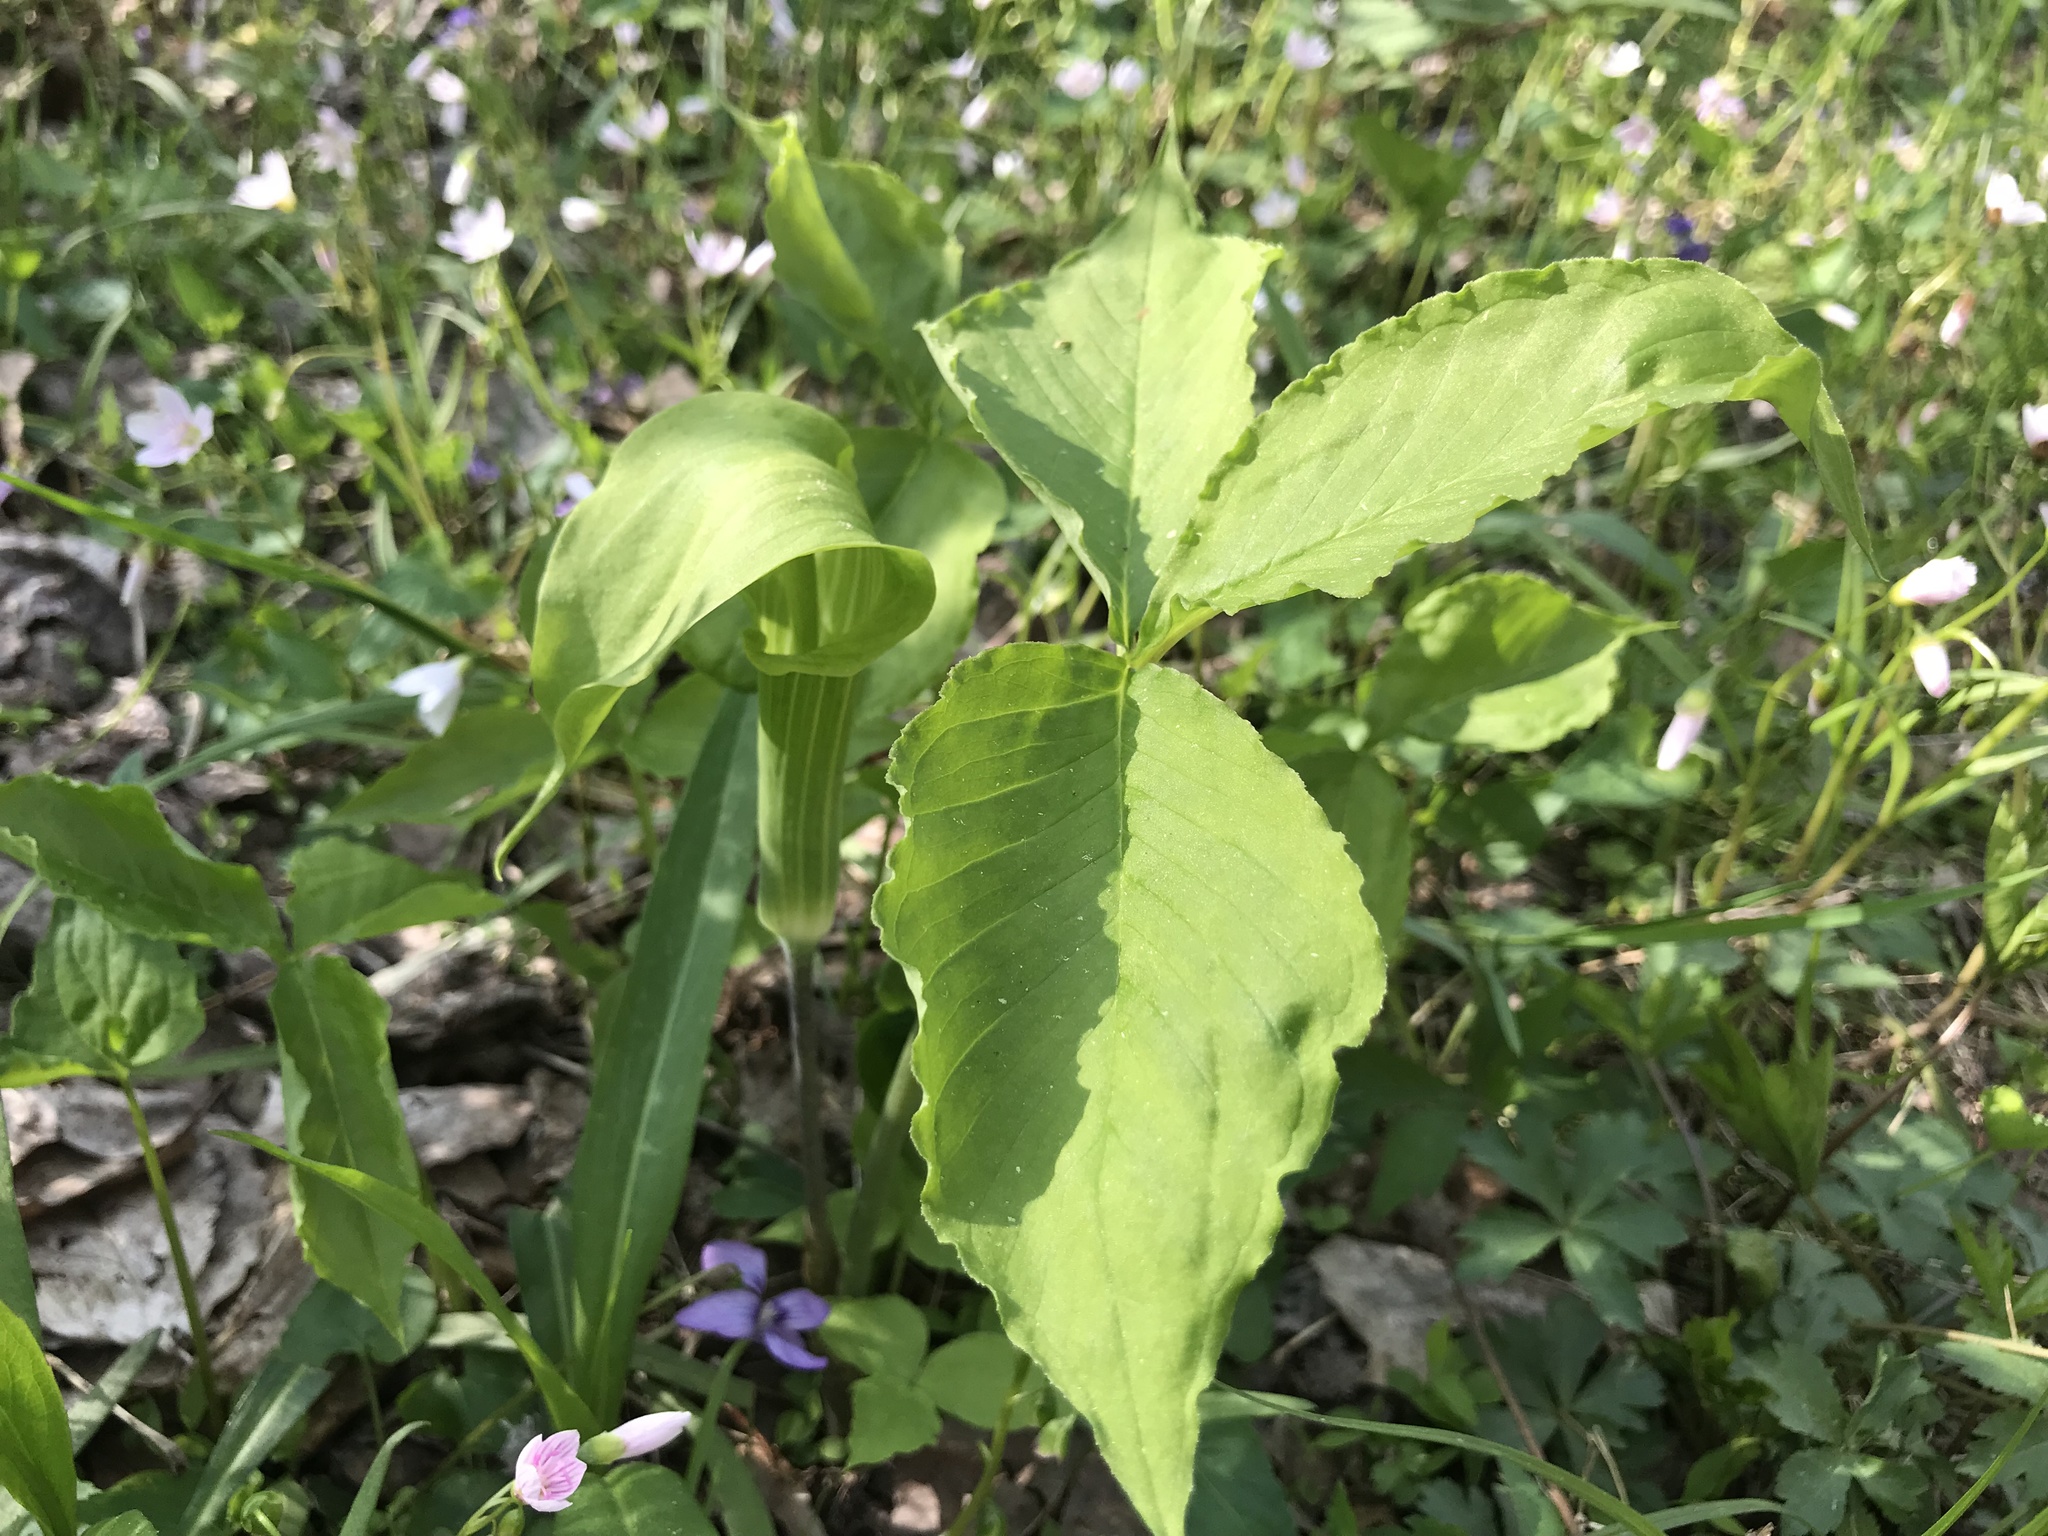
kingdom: Plantae
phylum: Tracheophyta
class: Liliopsida
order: Alismatales
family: Araceae
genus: Arisaema
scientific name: Arisaema triphyllum
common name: Jack-in-the-pulpit
